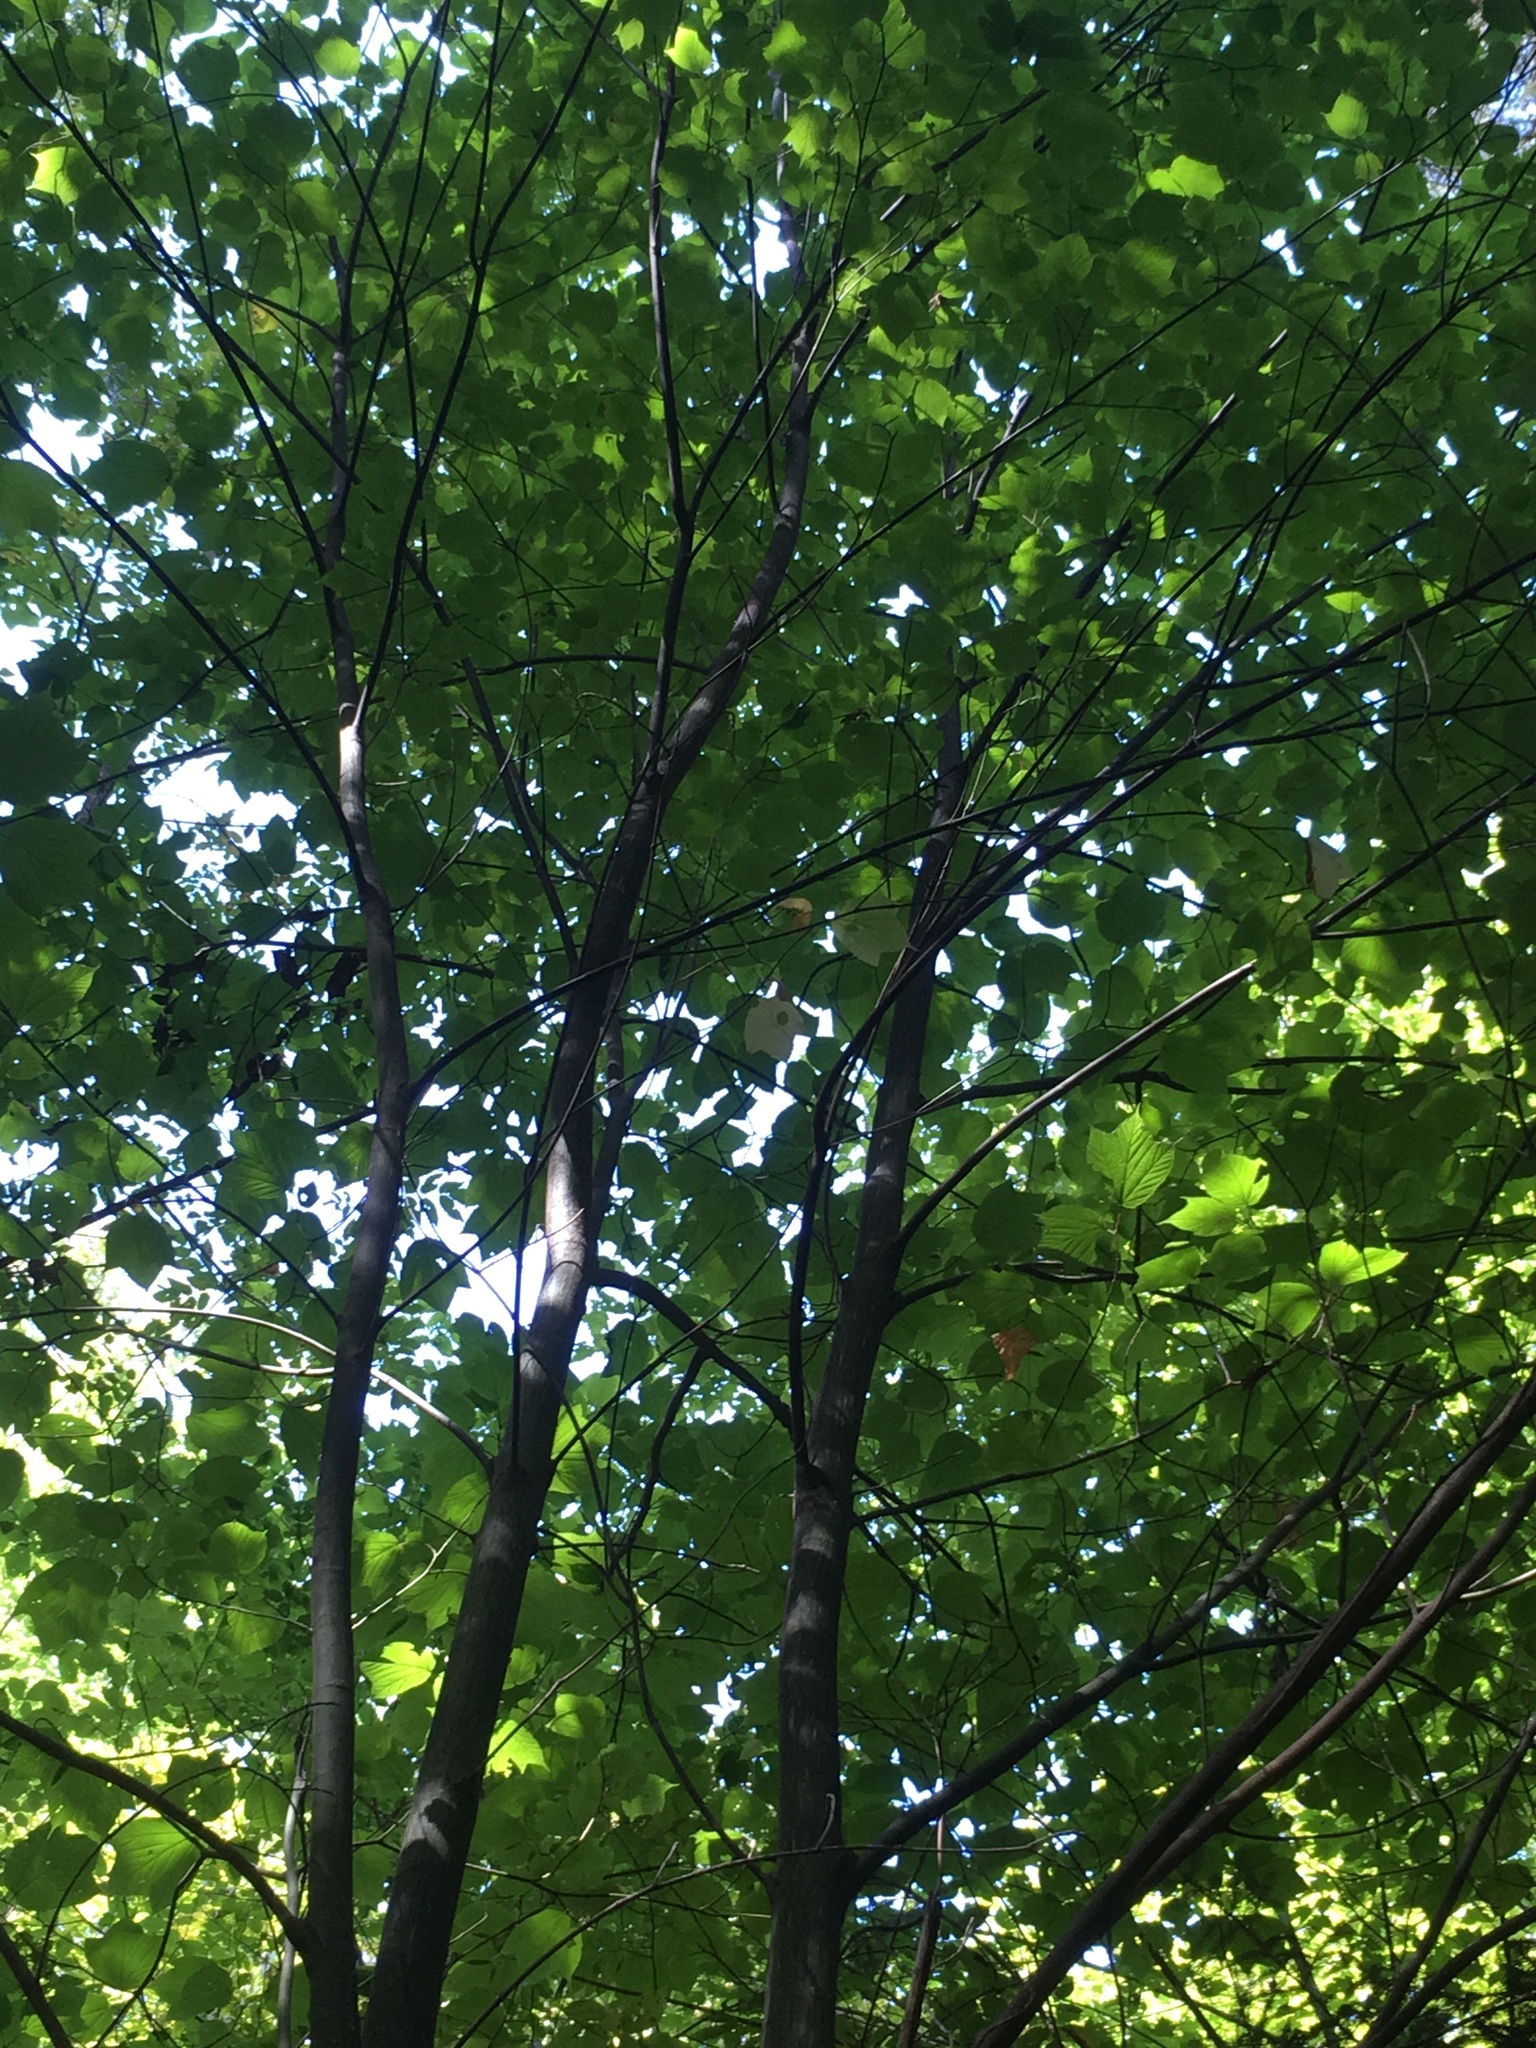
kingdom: Plantae
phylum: Tracheophyta
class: Magnoliopsida
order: Sapindales
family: Sapindaceae
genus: Acer
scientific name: Acer pensylvanicum
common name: Moosewood
